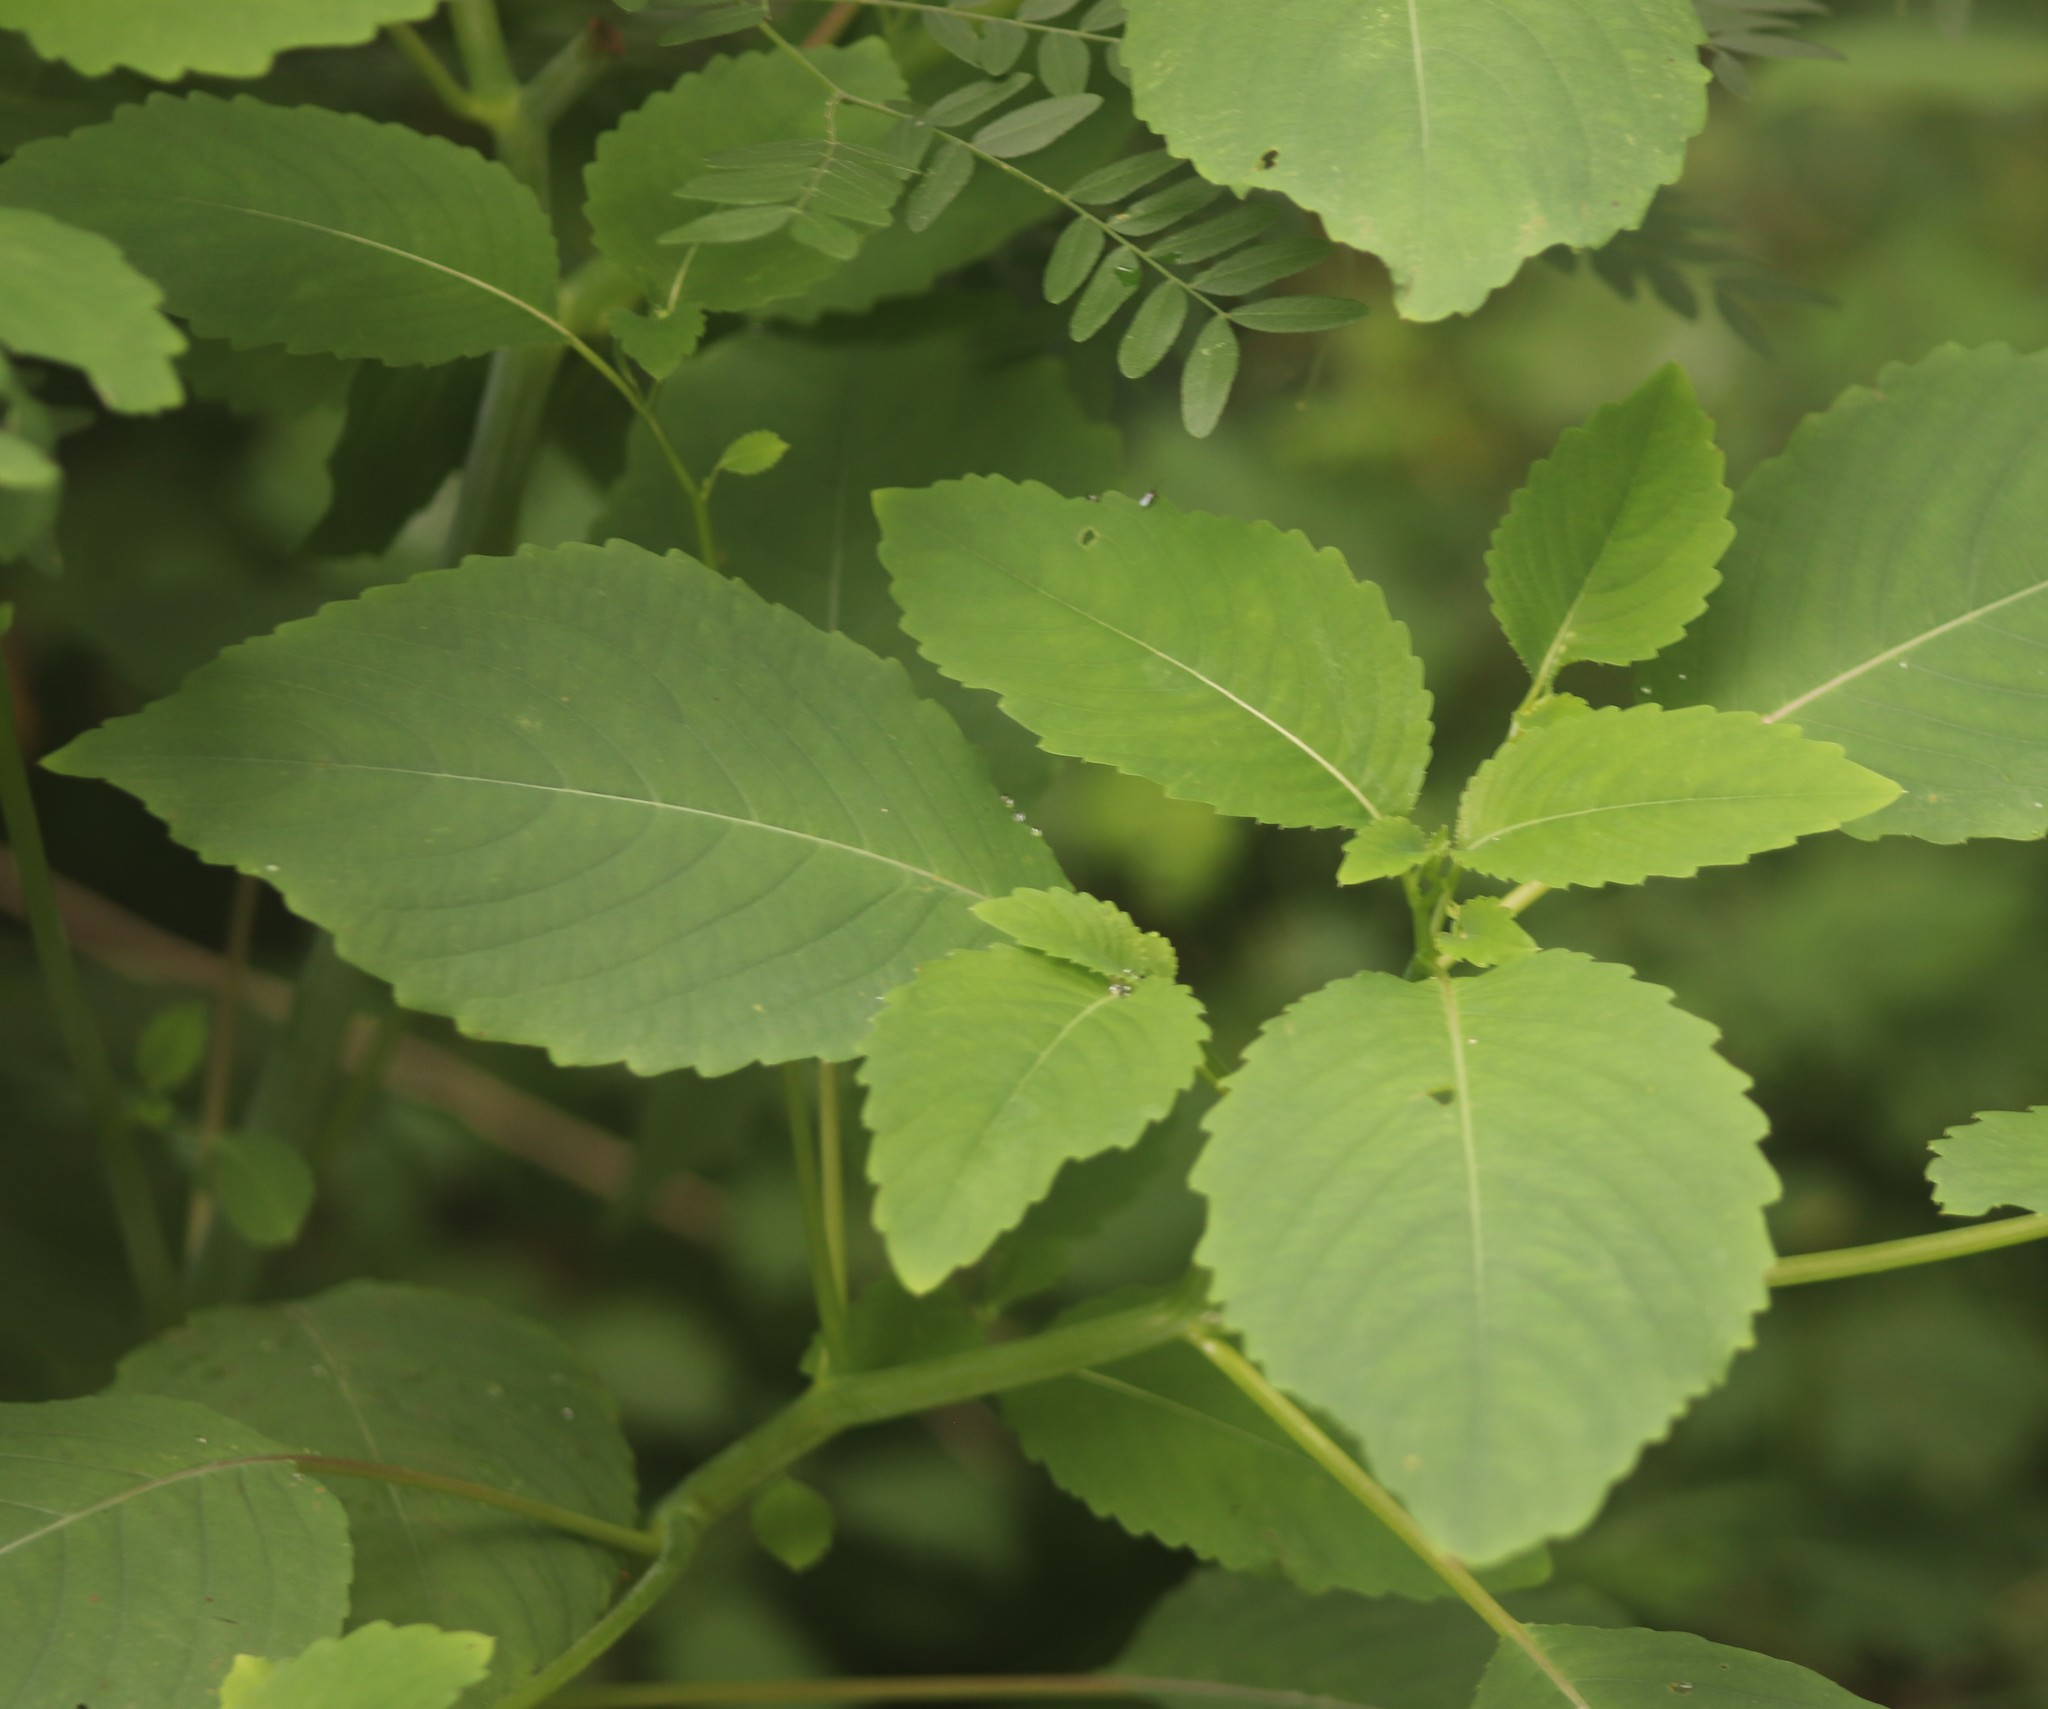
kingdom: Plantae
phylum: Tracheophyta
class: Magnoliopsida
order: Ericales
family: Balsaminaceae
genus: Impatiens
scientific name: Impatiens pallida
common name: Pale snapweed
